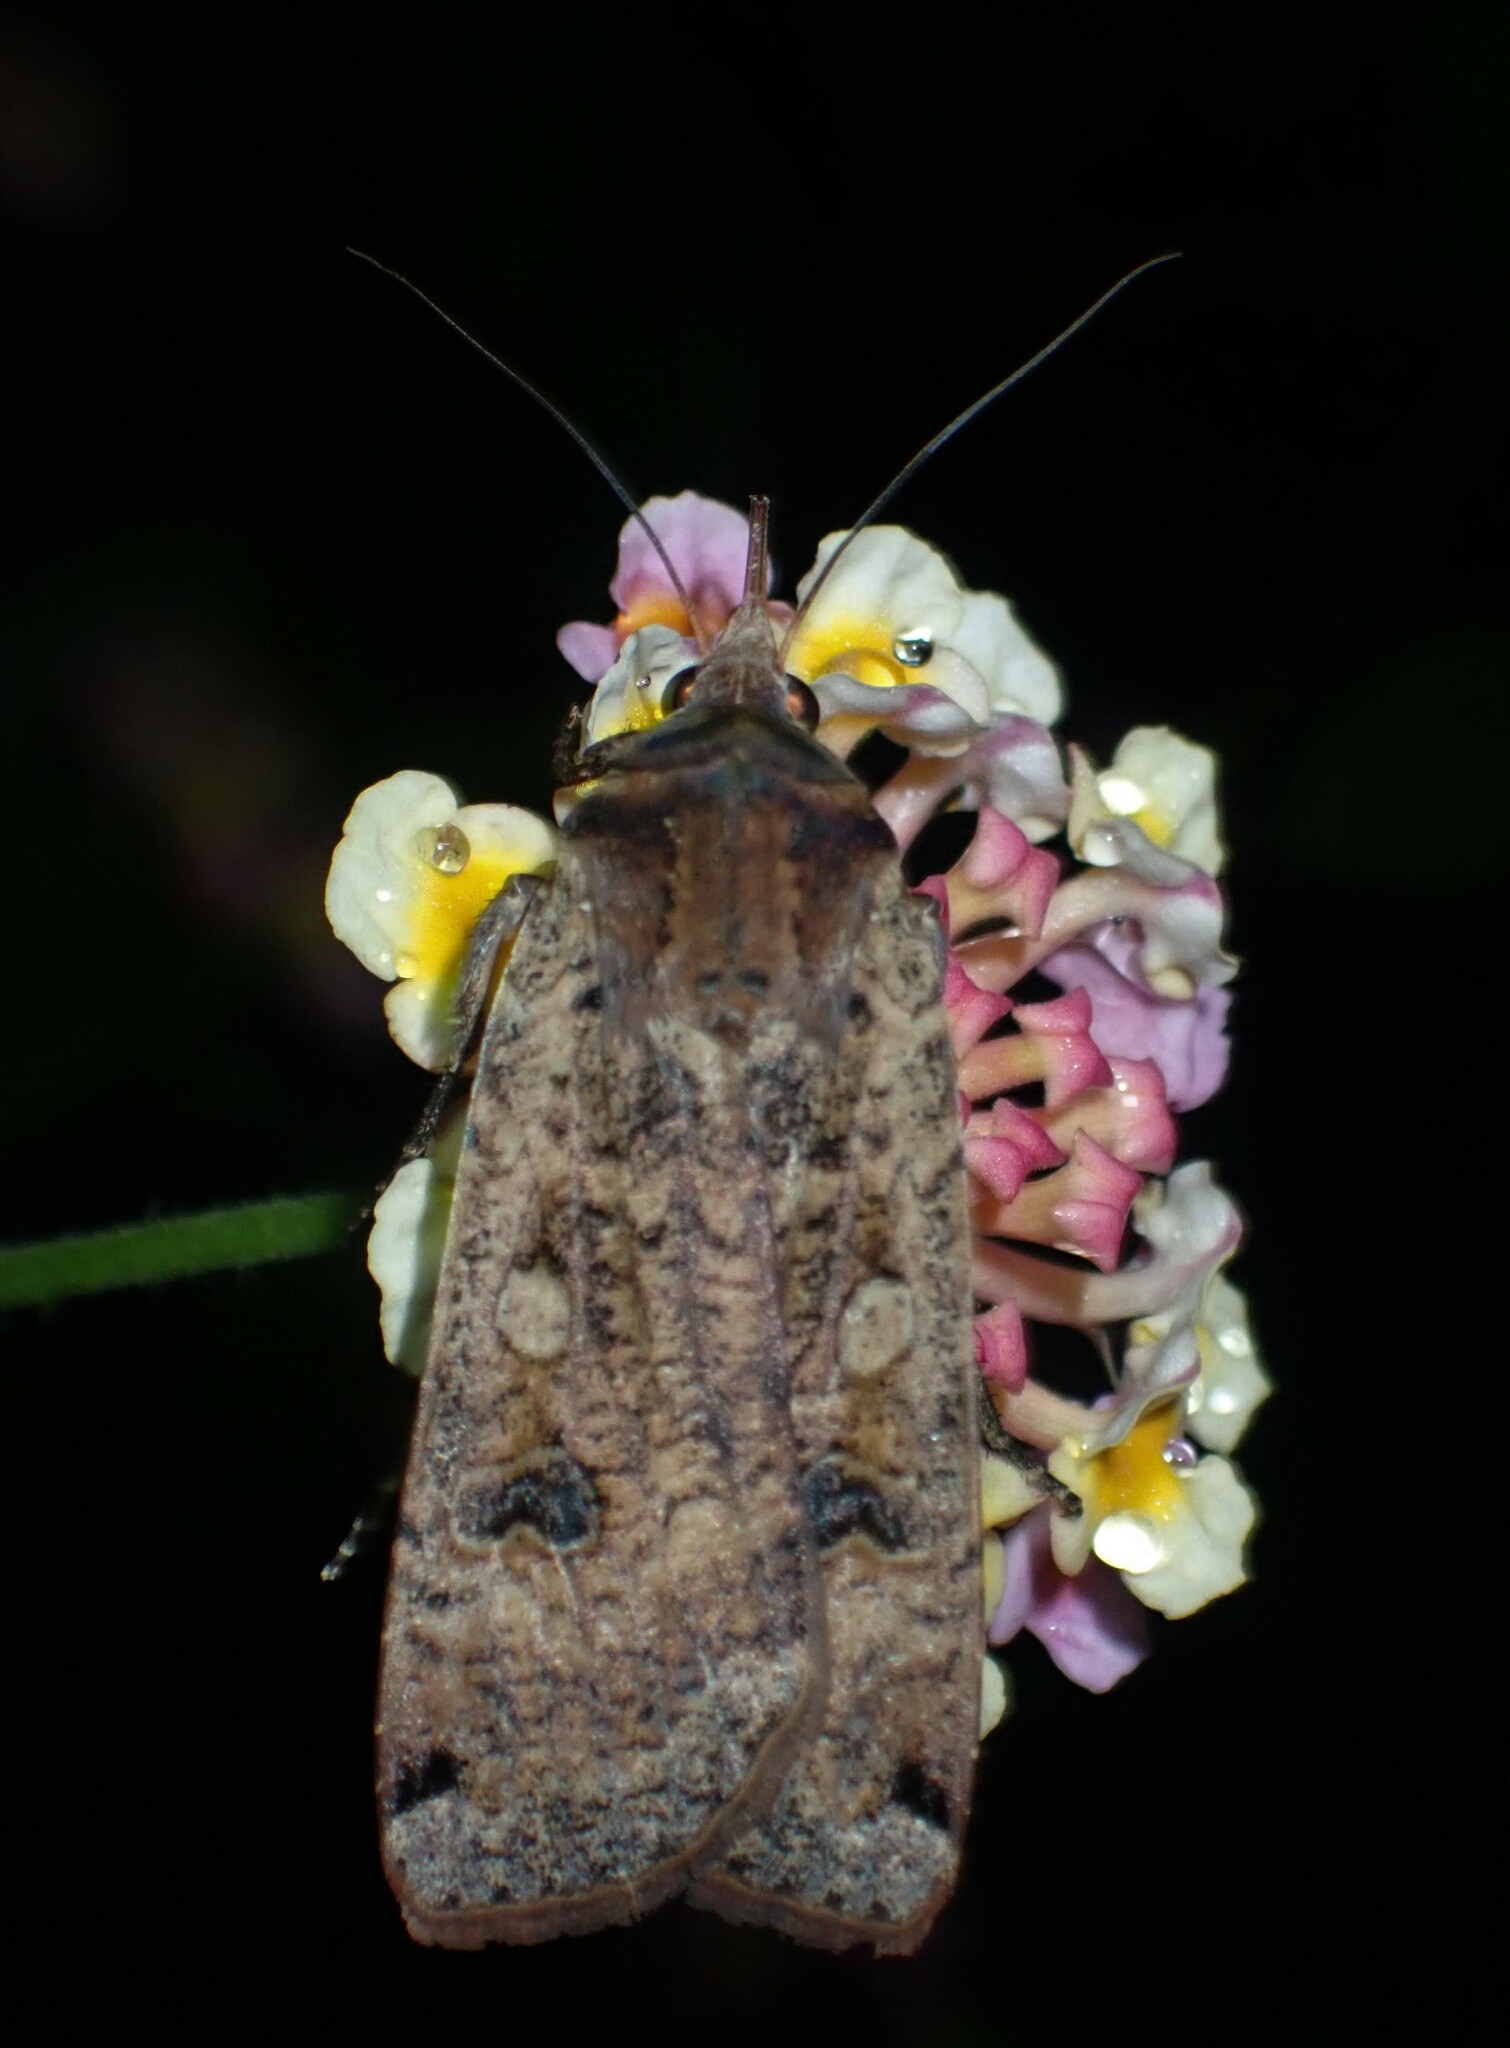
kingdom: Animalia
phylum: Arthropoda
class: Insecta
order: Lepidoptera
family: Noctuidae
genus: Noctua
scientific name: Noctua pronuba
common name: Large yellow underwing
